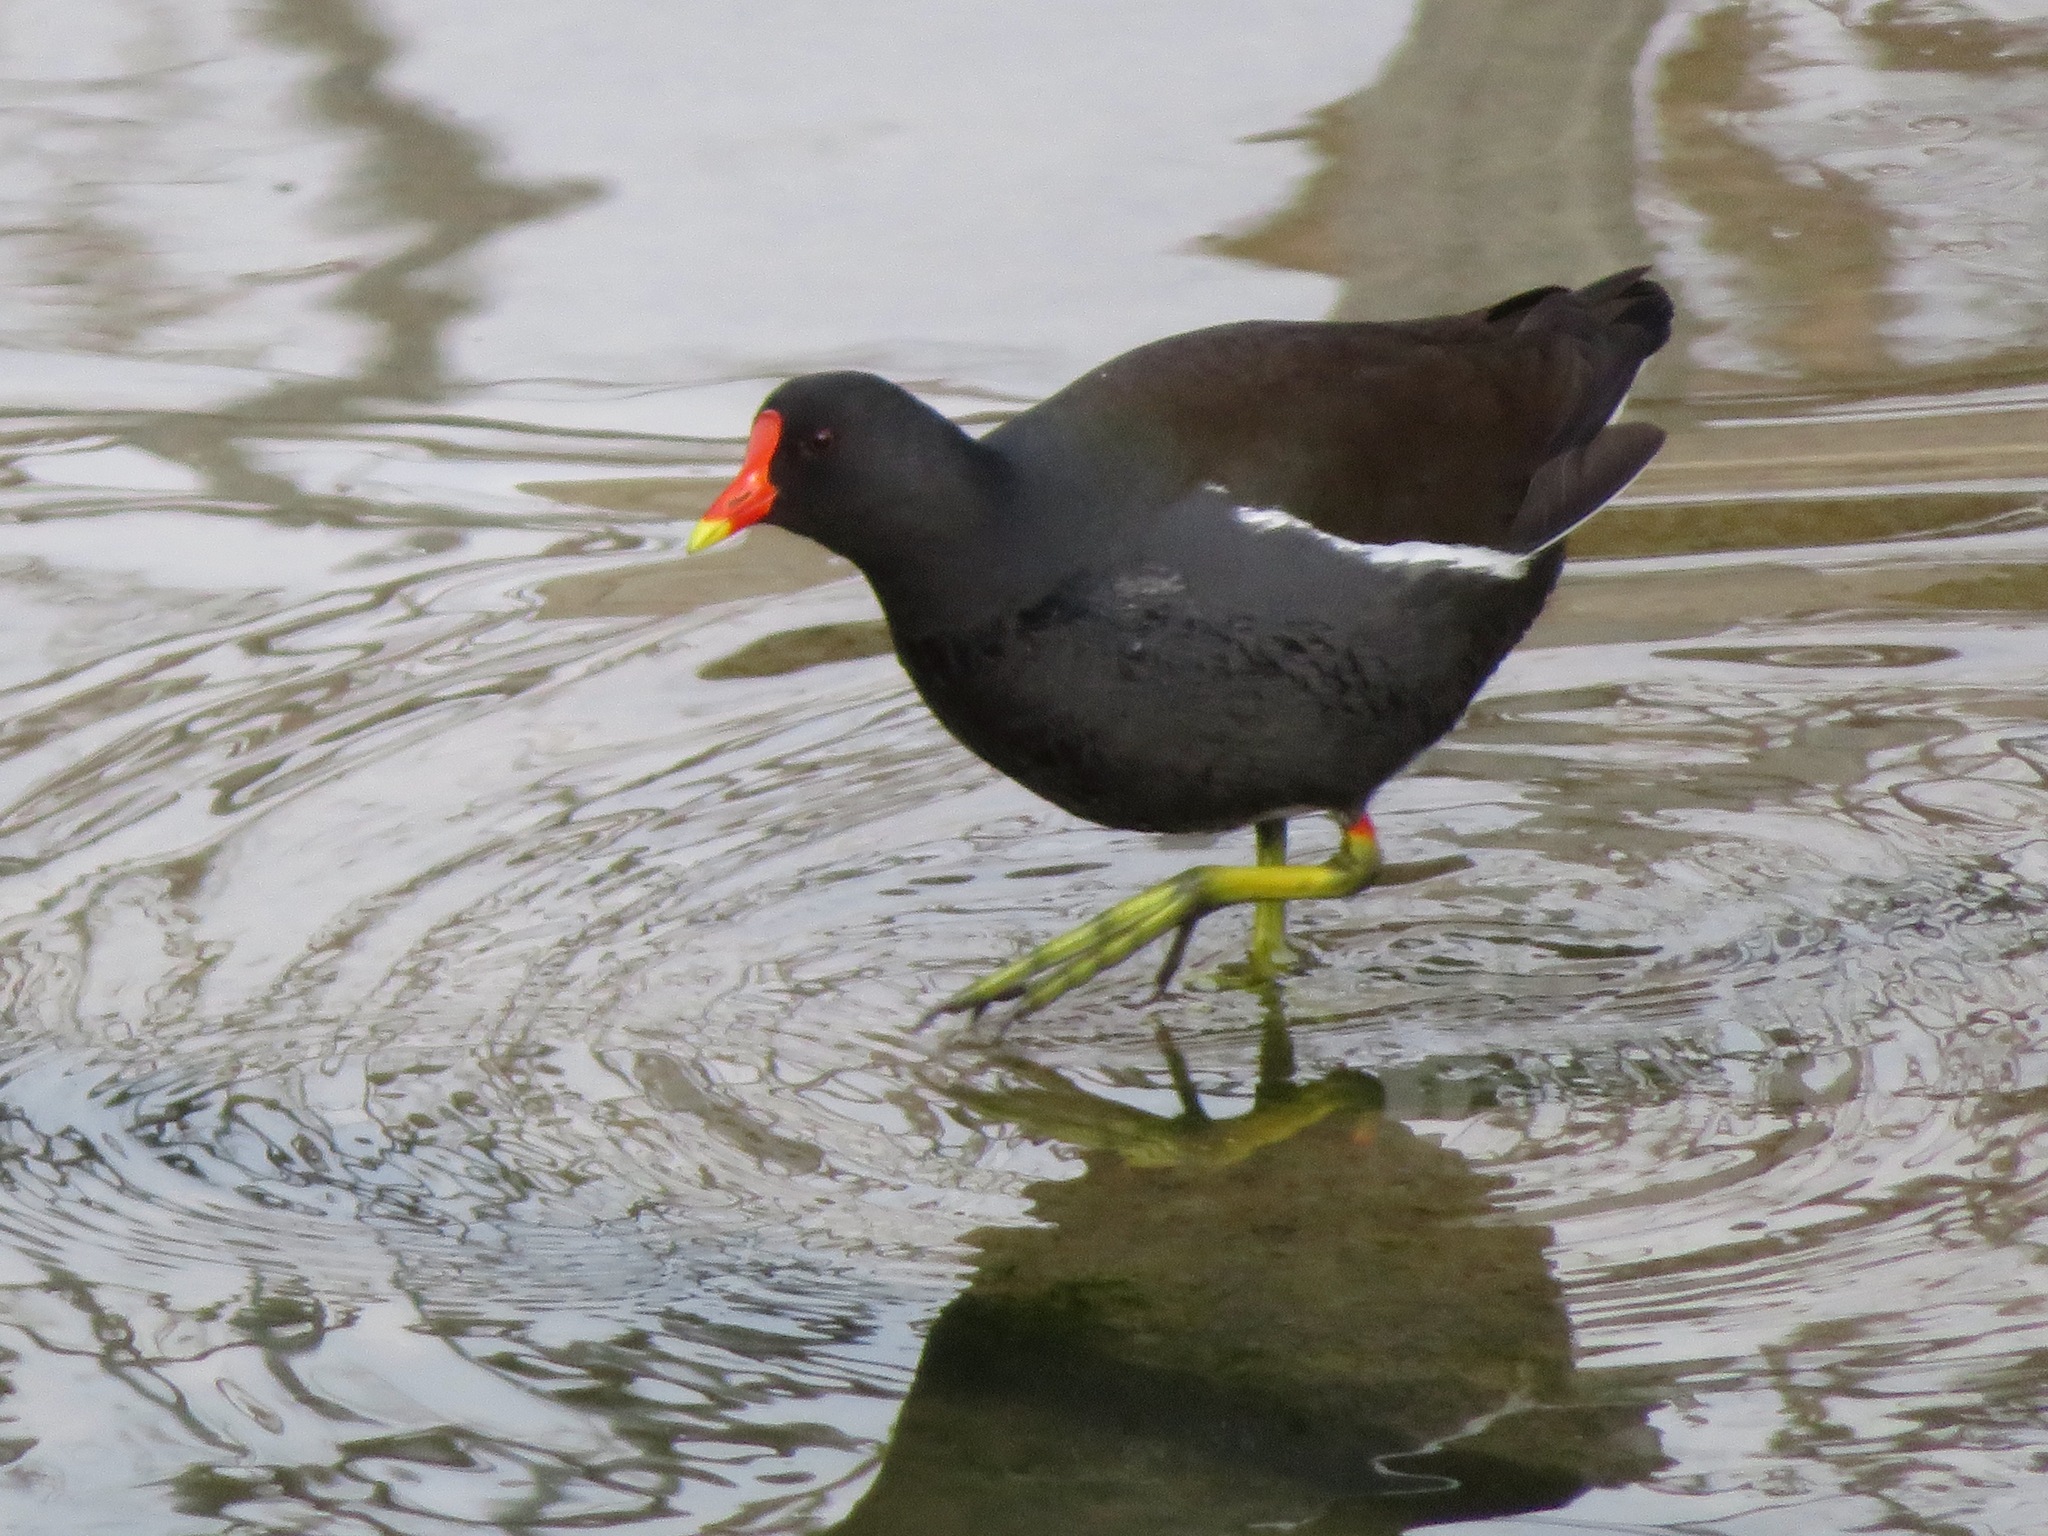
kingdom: Animalia
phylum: Chordata
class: Aves
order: Gruiformes
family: Rallidae
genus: Gallinula
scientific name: Gallinula chloropus
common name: Common moorhen
